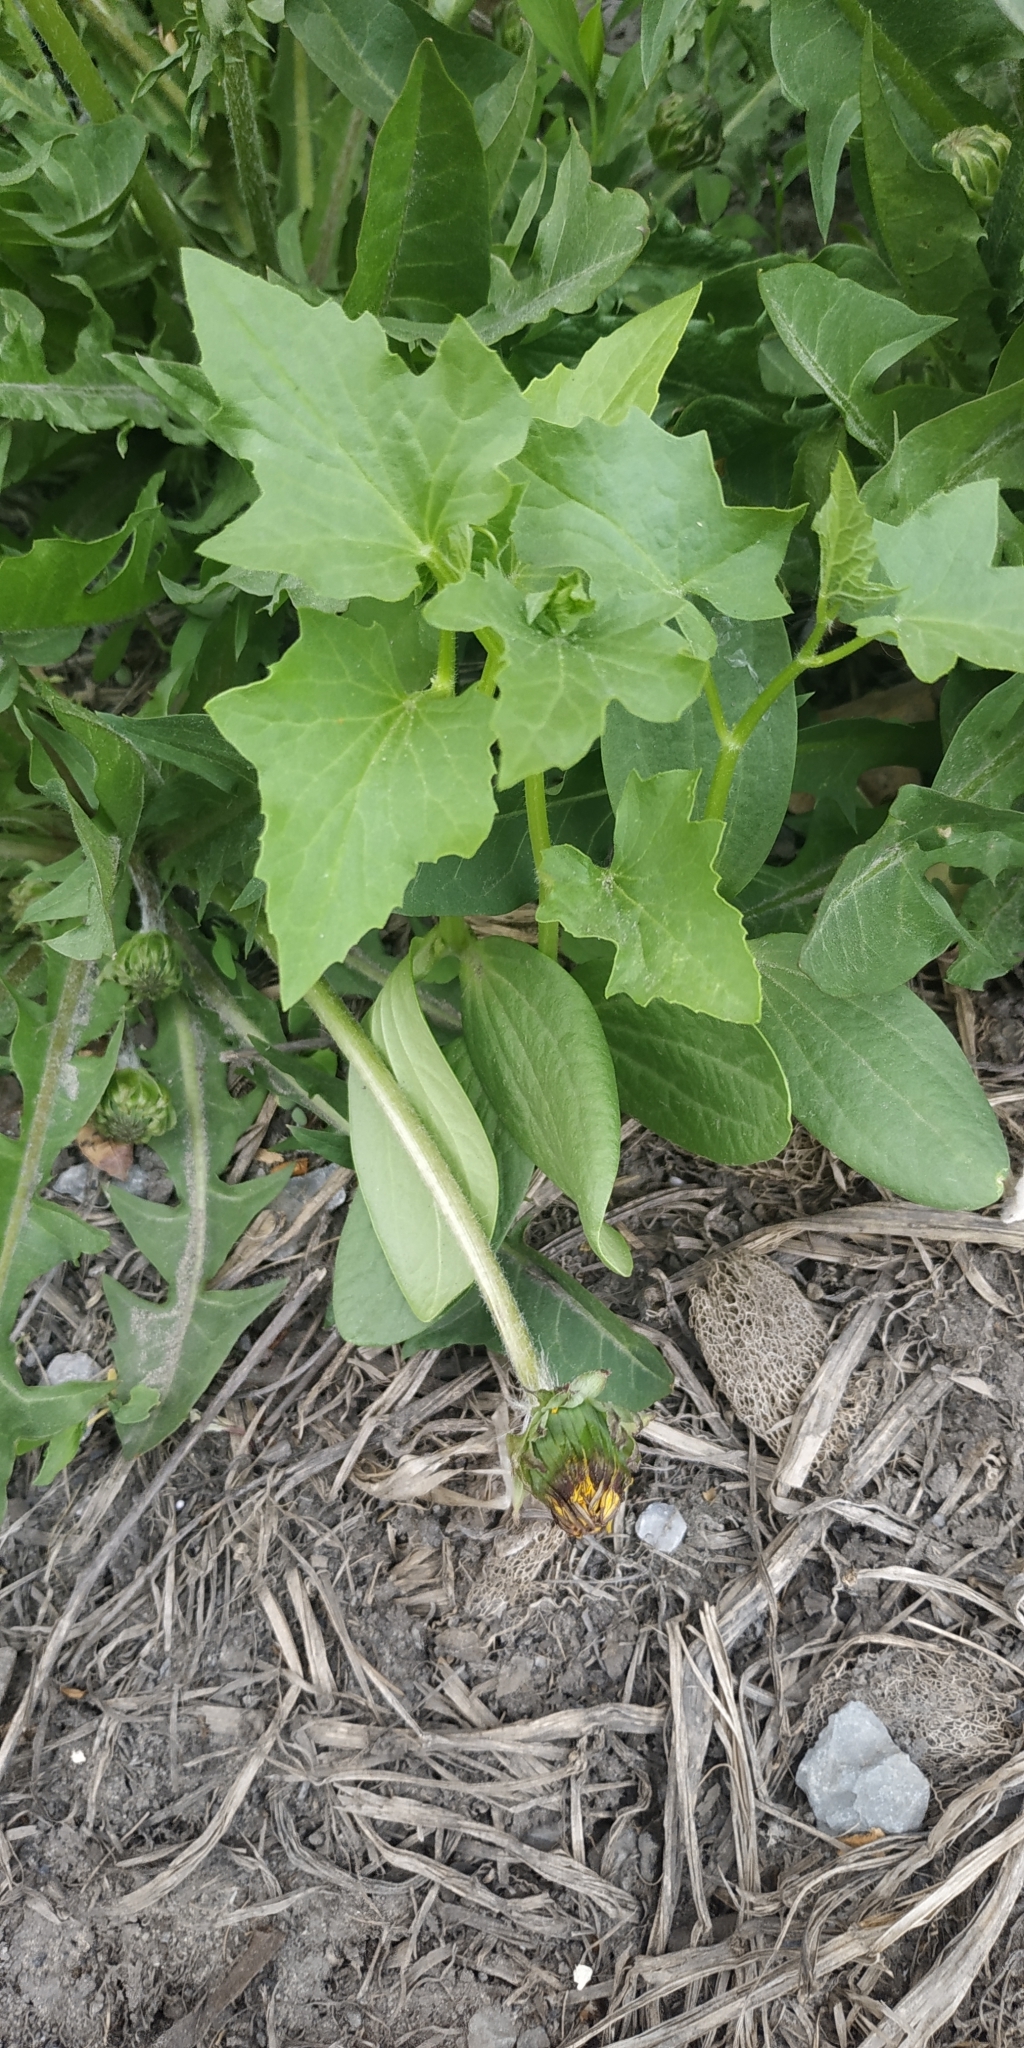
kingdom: Plantae
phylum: Tracheophyta
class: Magnoliopsida
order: Cucurbitales
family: Cucurbitaceae
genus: Echinocystis
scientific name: Echinocystis lobata
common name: Wild cucumber
